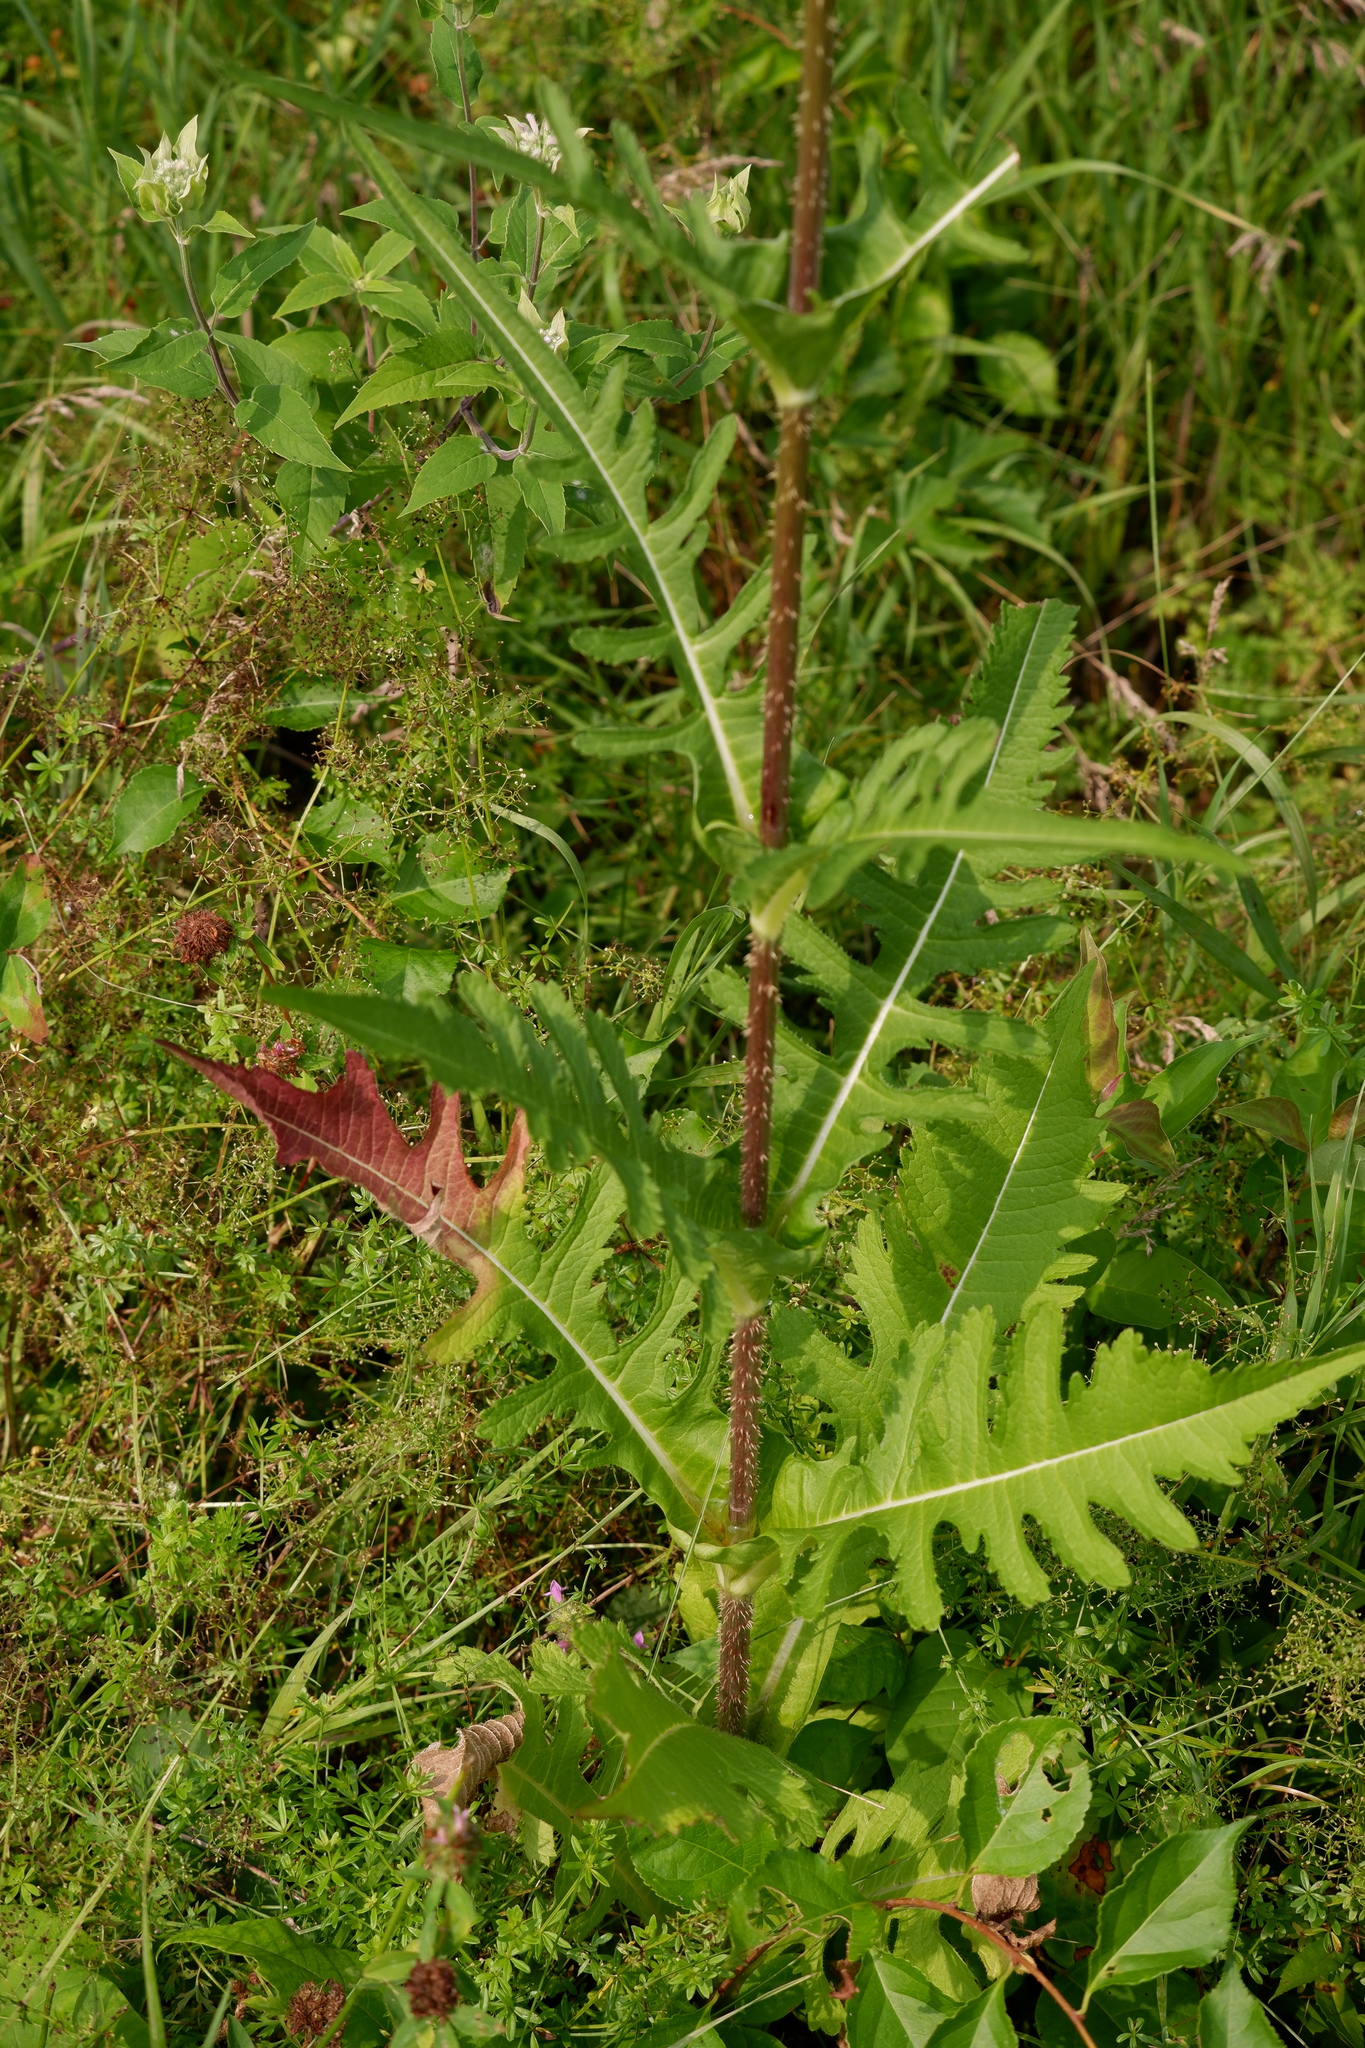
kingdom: Plantae
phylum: Tracheophyta
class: Magnoliopsida
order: Dipsacales
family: Caprifoliaceae
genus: Dipsacus
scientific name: Dipsacus laciniatus
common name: Cut-leaved teasel
